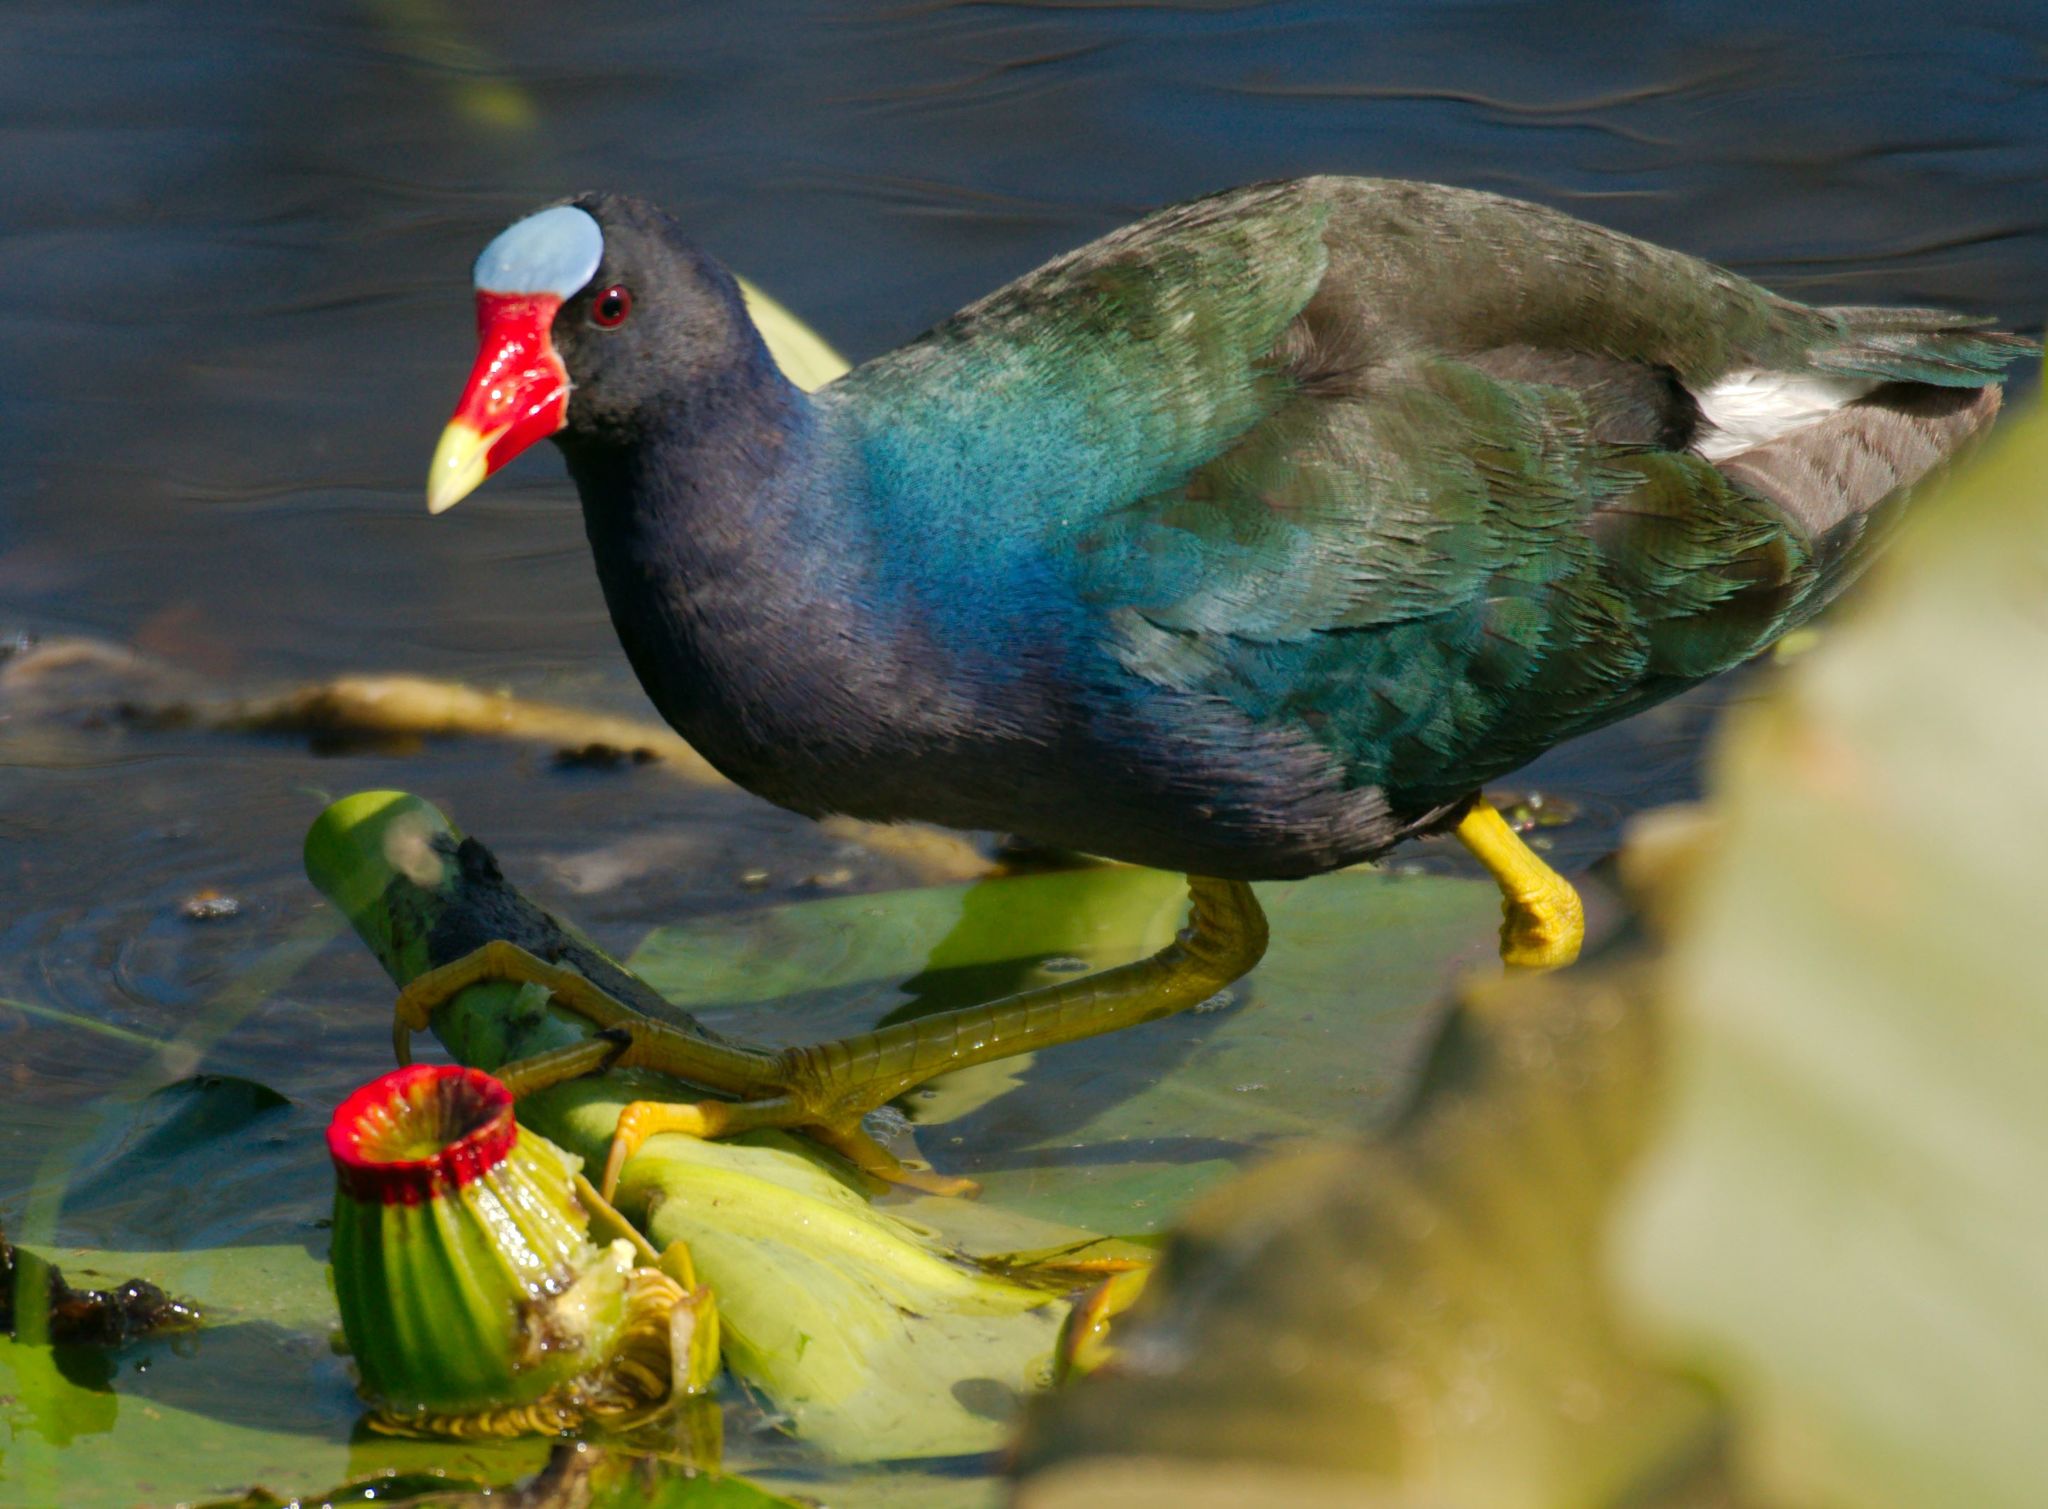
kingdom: Animalia
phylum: Chordata
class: Aves
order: Gruiformes
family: Rallidae
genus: Porphyrio
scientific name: Porphyrio martinica
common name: Purple gallinule
